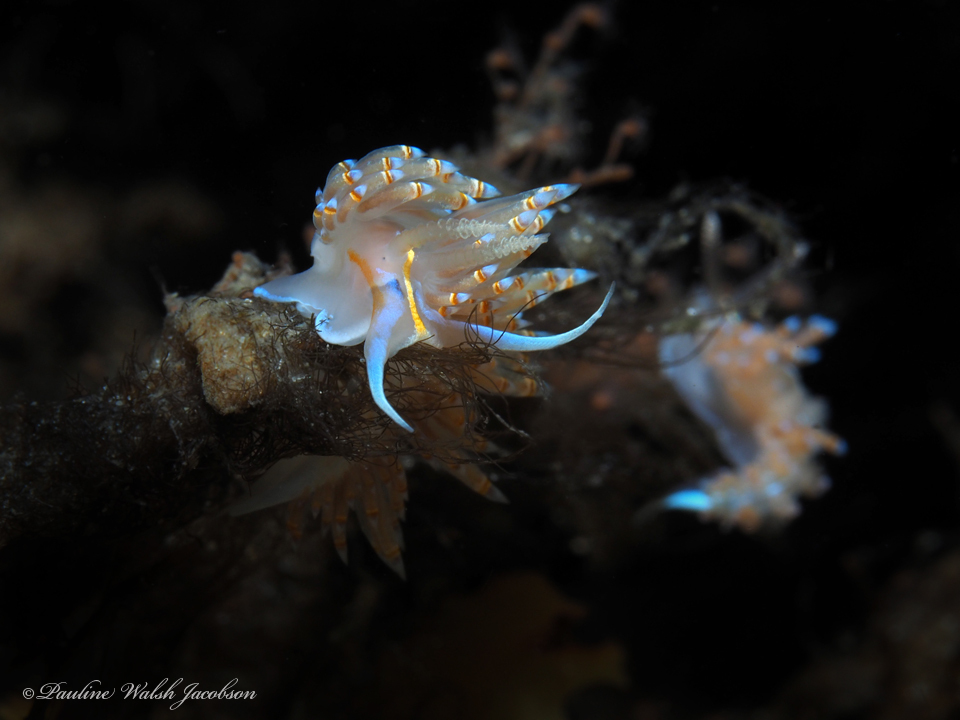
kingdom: Animalia
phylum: Mollusca
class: Gastropoda
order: Nudibranchia
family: Myrrhinidae
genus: Dondice
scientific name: Dondice jupiteriensis
